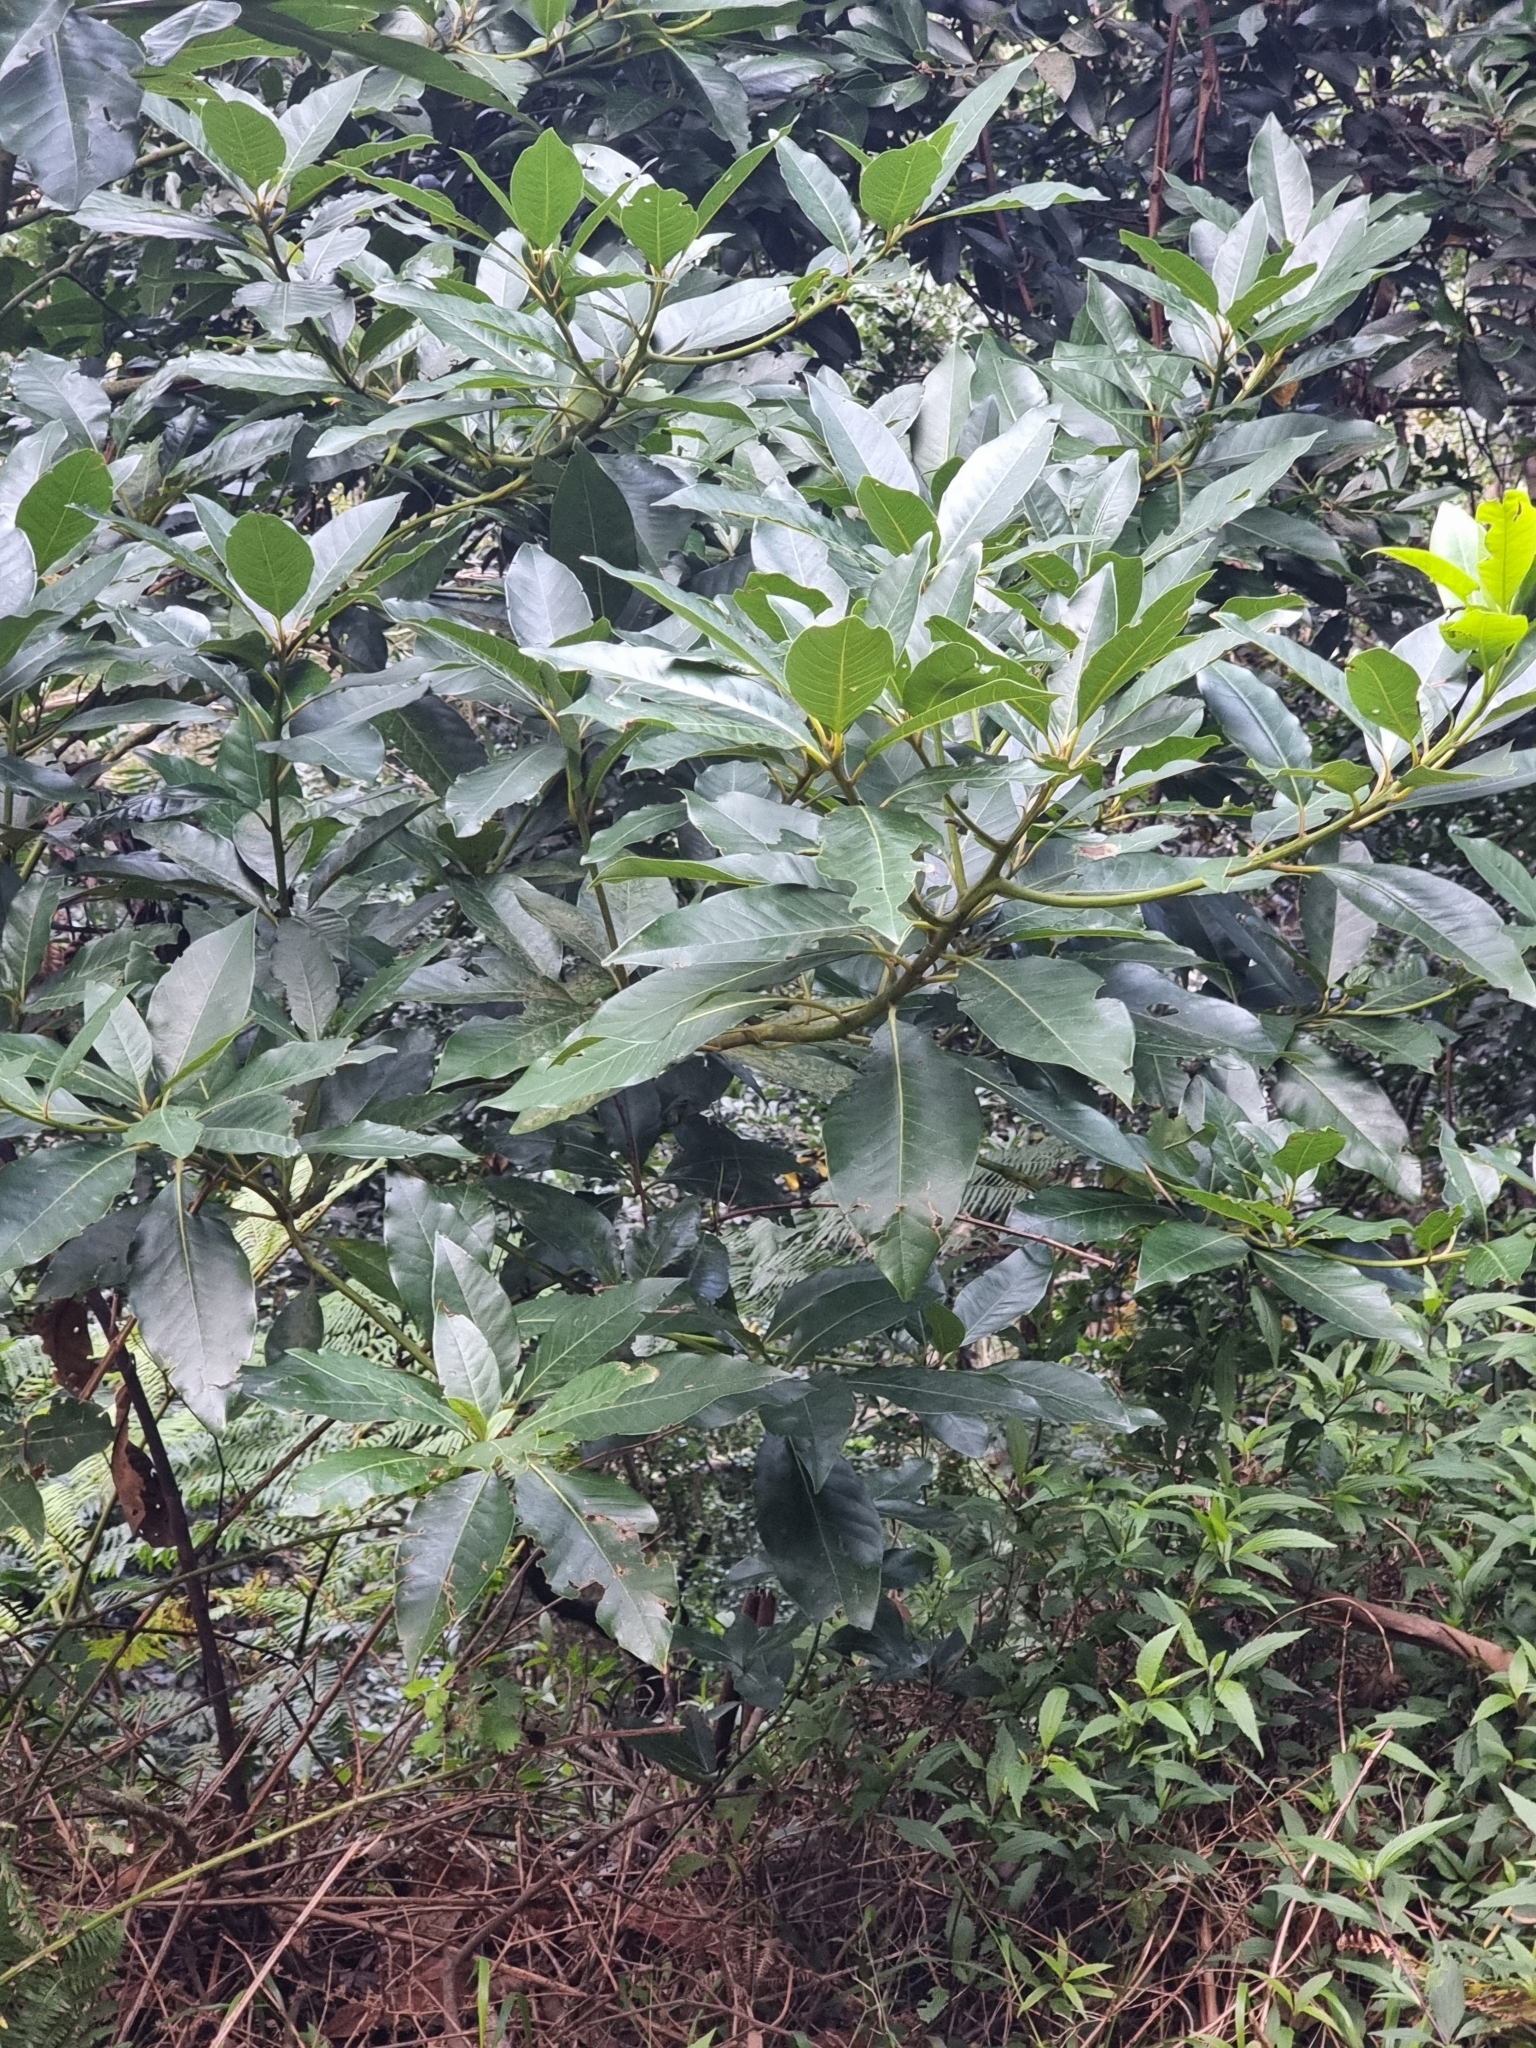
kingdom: Plantae
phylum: Tracheophyta
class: Magnoliopsida
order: Laurales
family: Lauraceae
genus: Persea
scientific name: Persea indica
